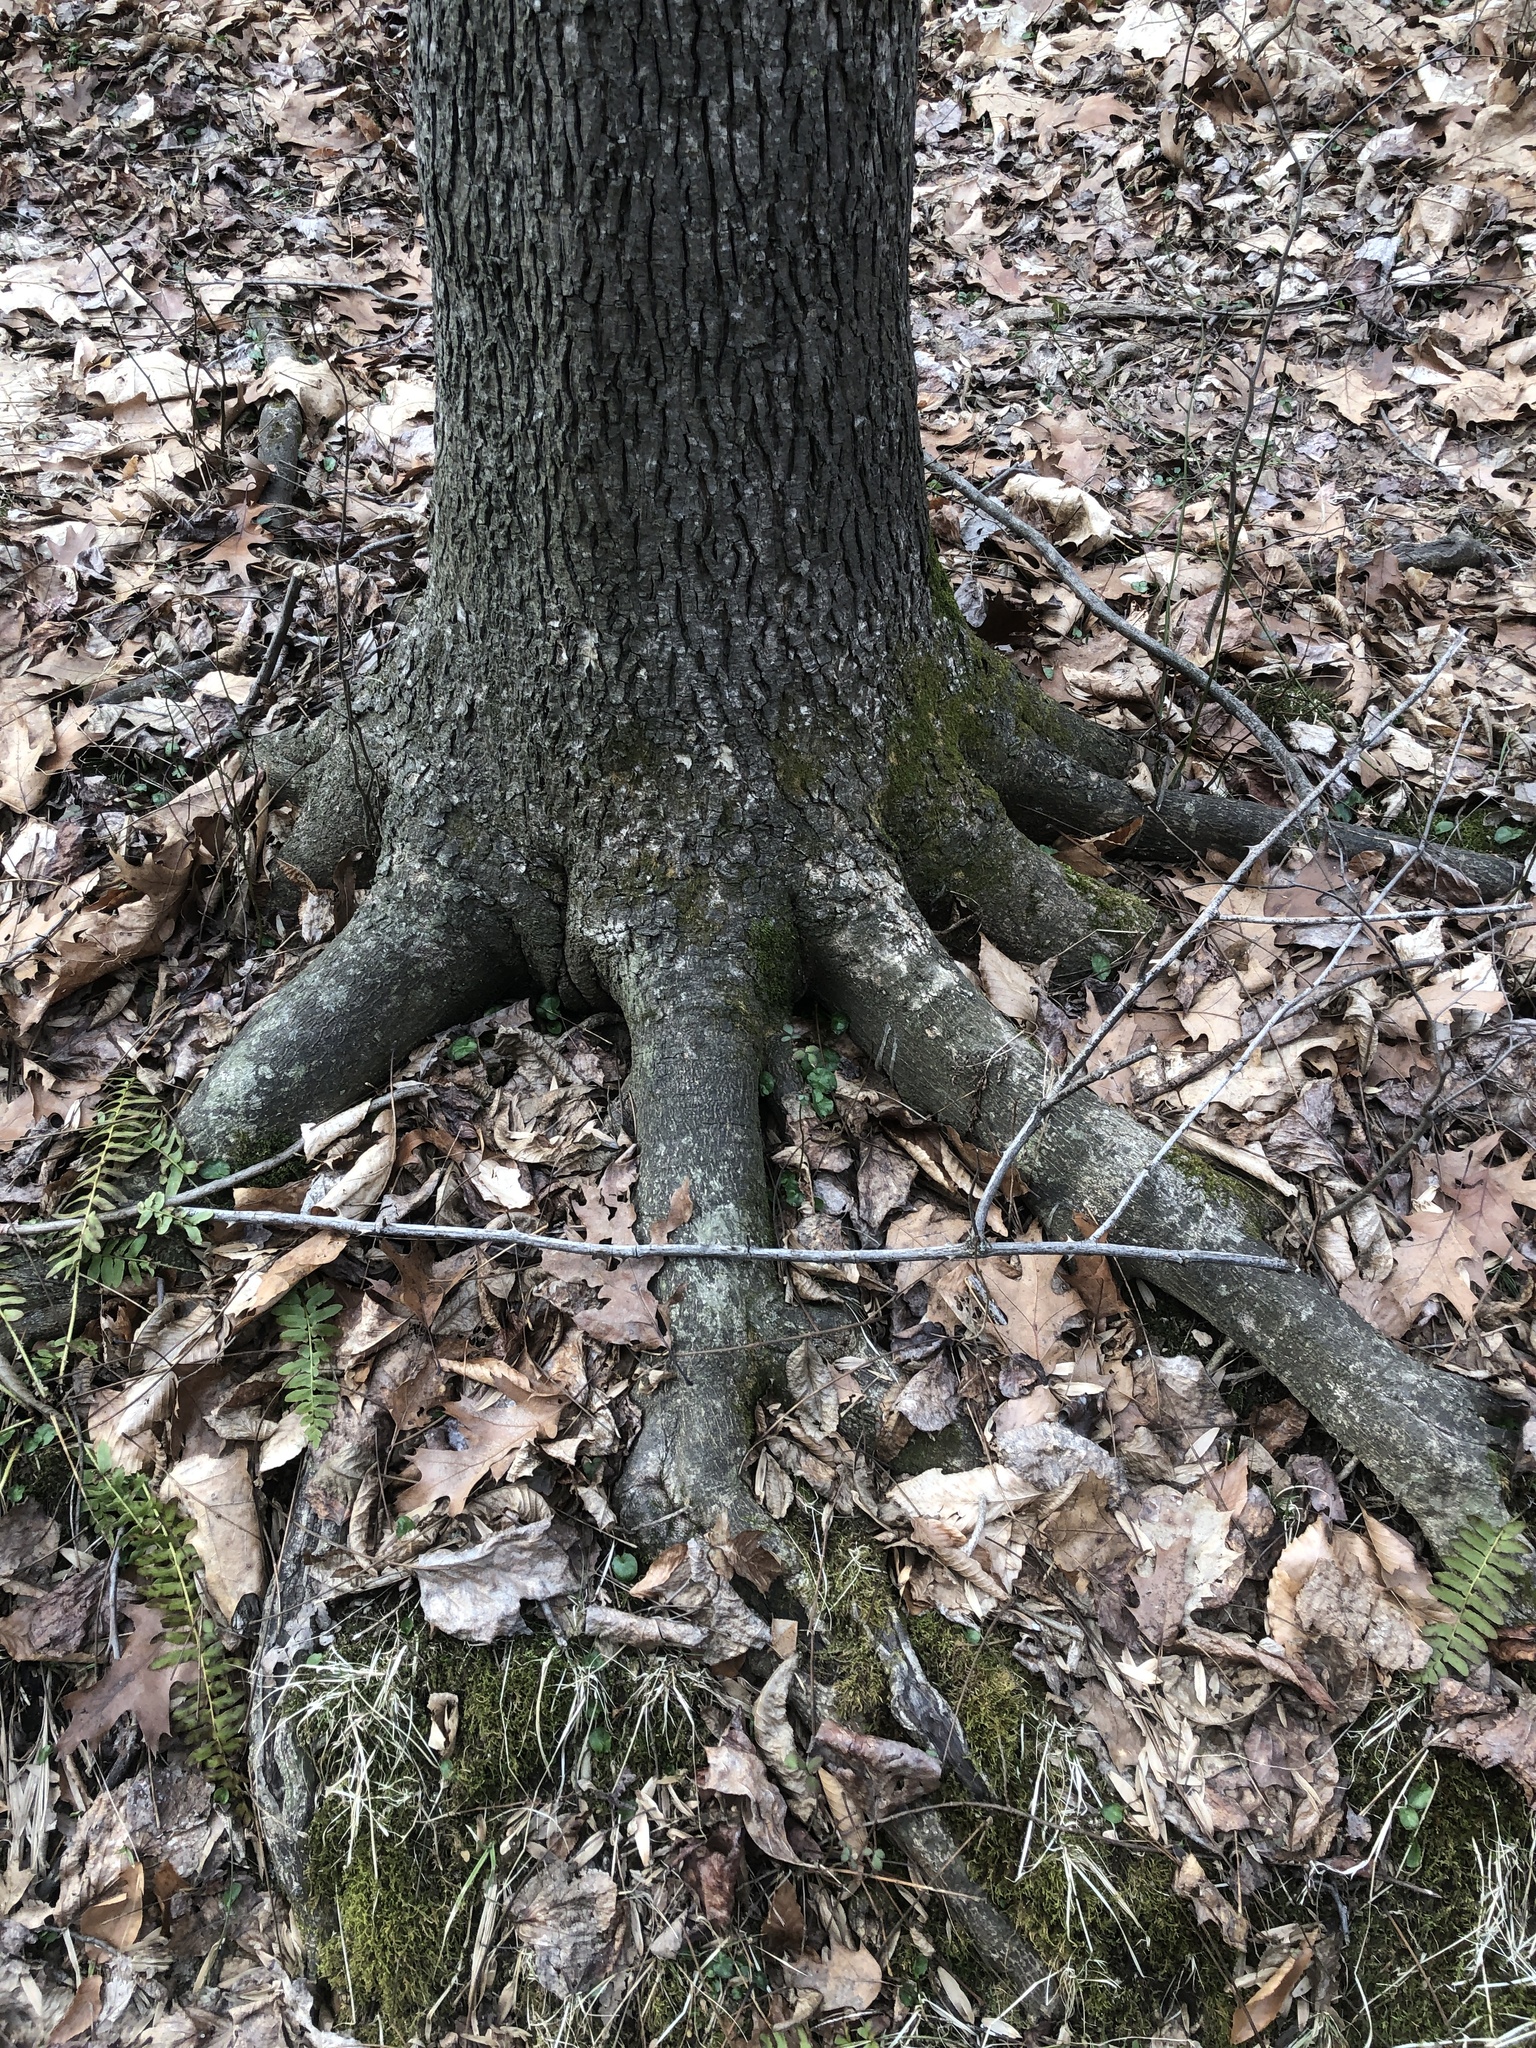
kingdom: Plantae
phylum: Tracheophyta
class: Magnoliopsida
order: Fagales
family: Juglandaceae
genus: Carya
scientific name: Carya cordiformis
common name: Bitternut hickory
